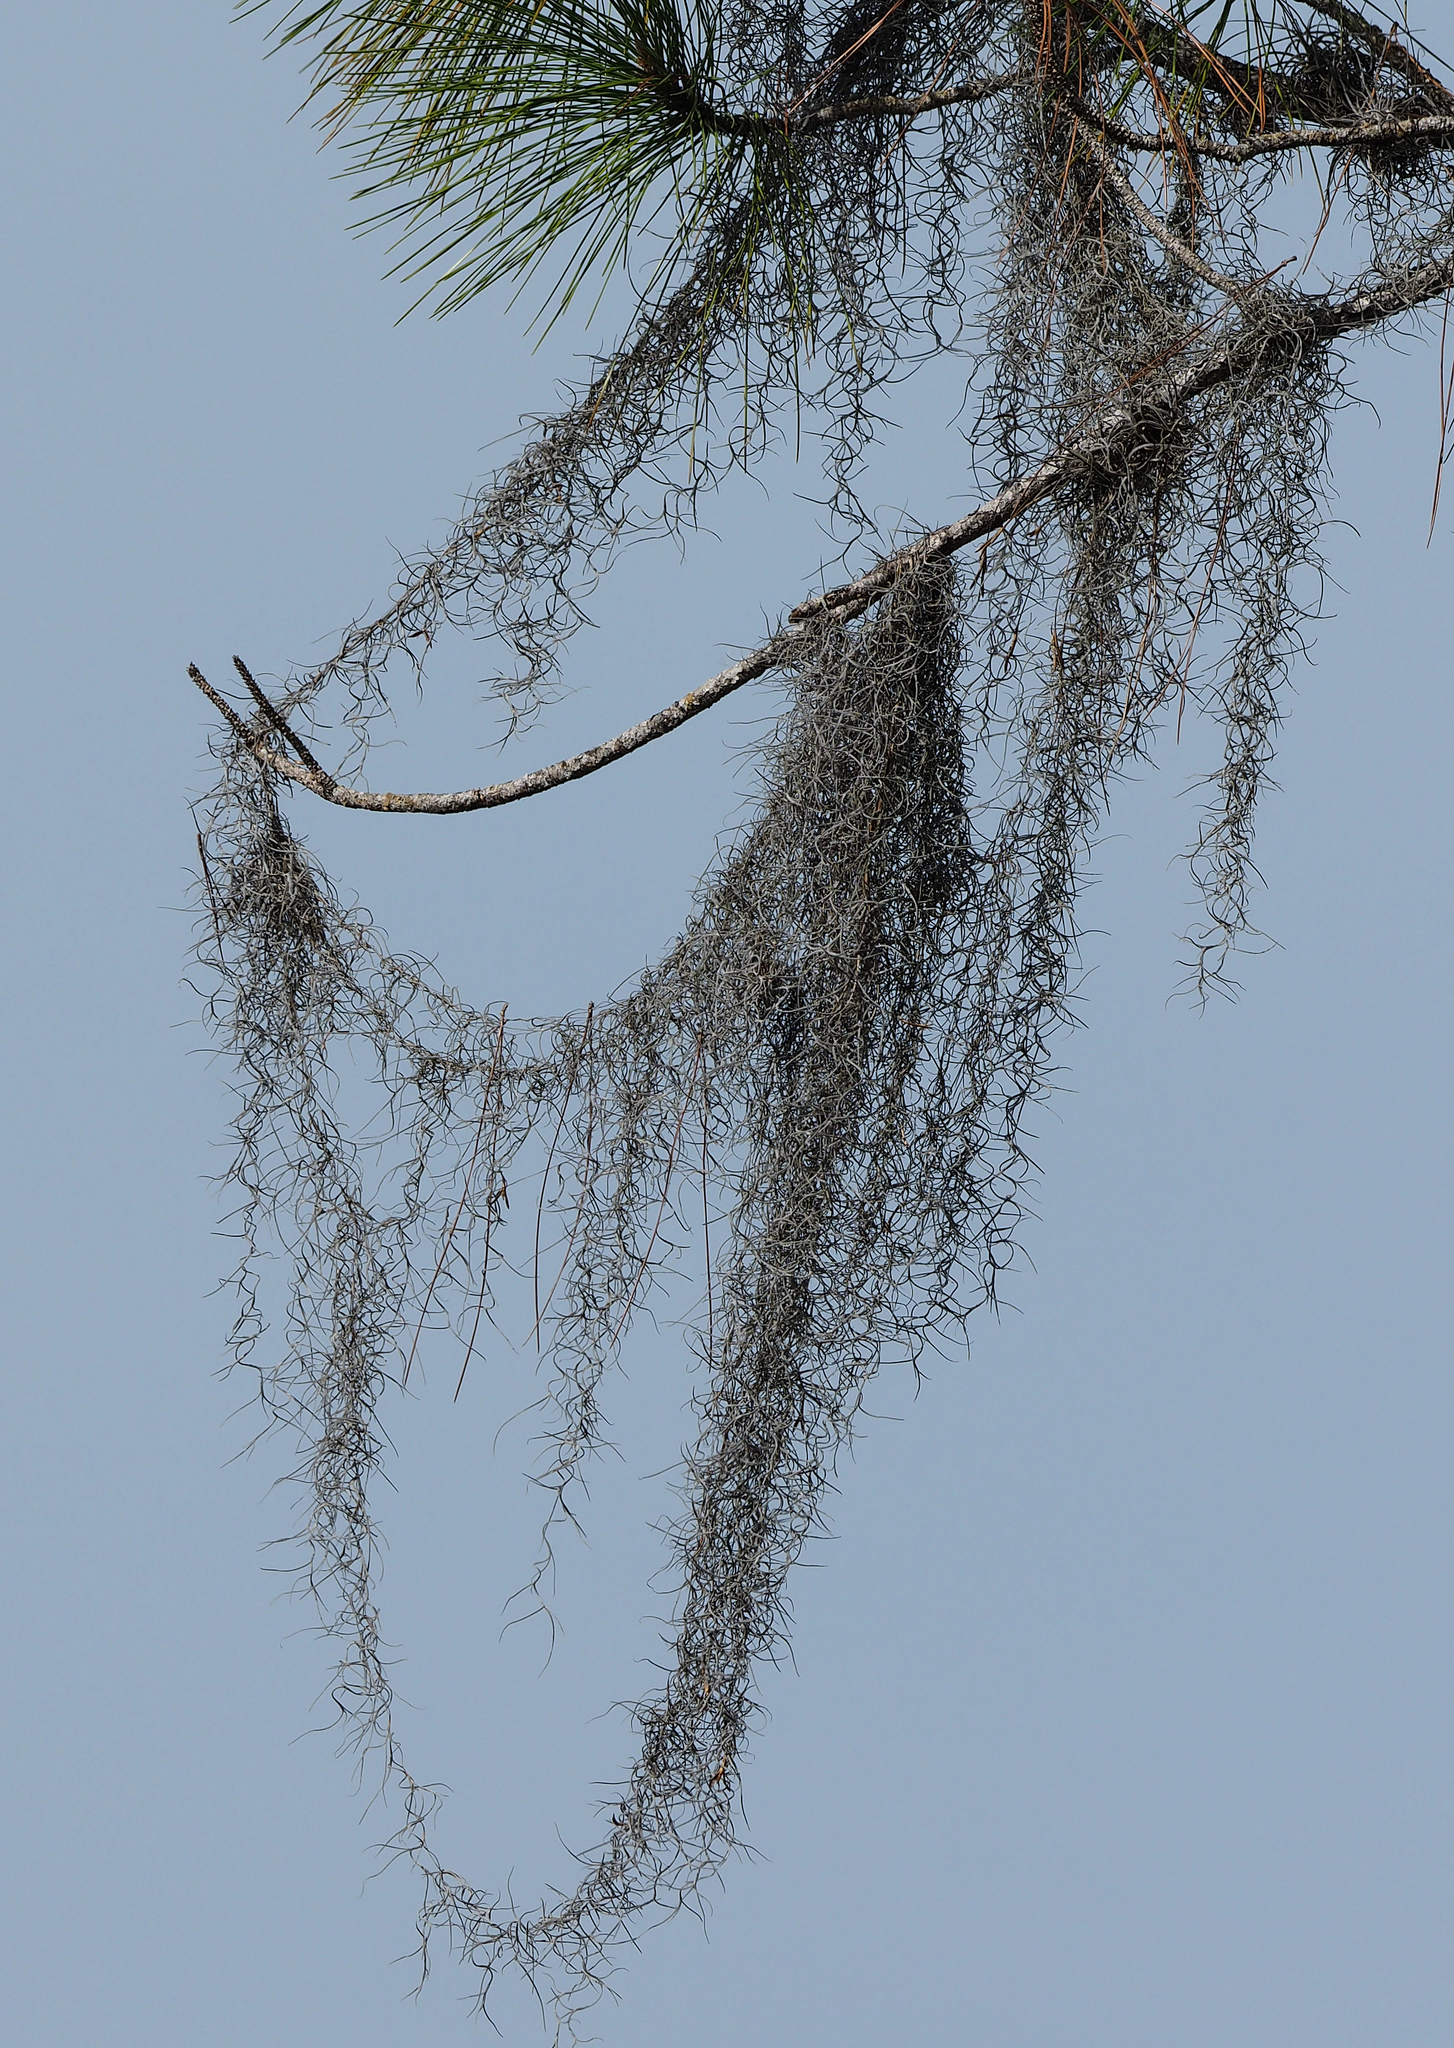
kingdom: Plantae
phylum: Tracheophyta
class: Liliopsida
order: Poales
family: Bromeliaceae
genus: Tillandsia
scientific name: Tillandsia usneoides
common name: Spanish moss
